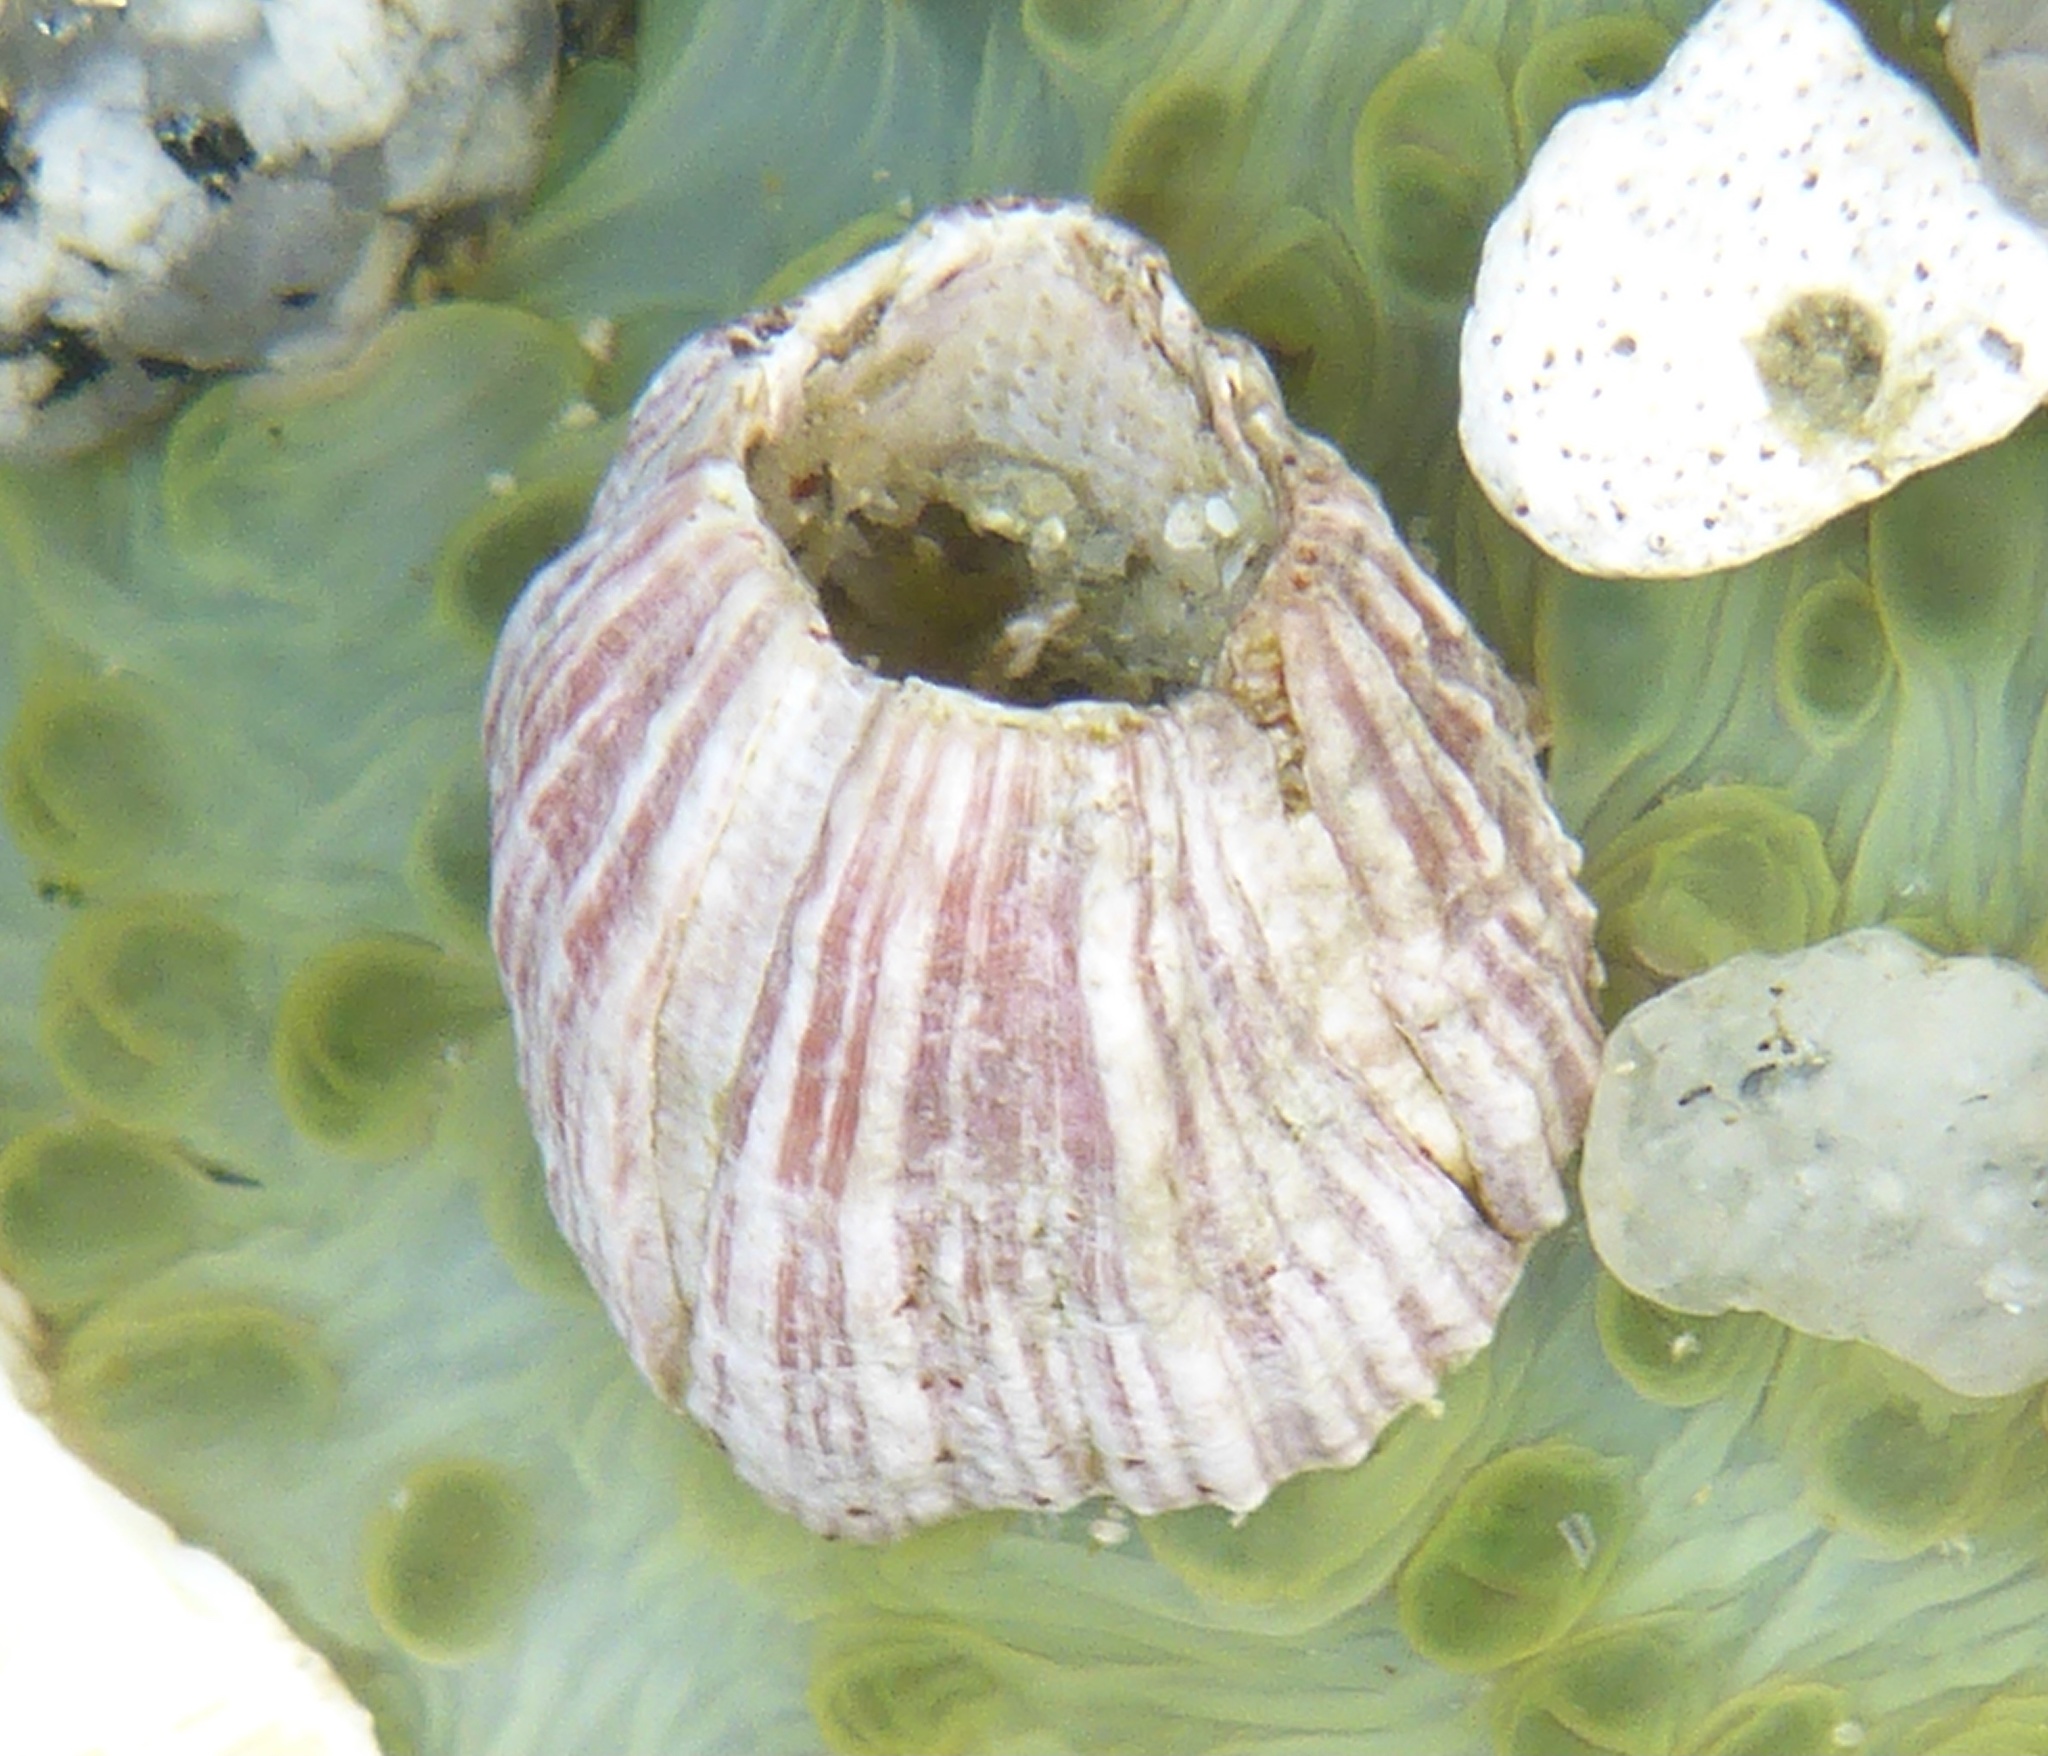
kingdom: Animalia
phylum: Arthropoda
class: Maxillopoda
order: Sessilia
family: Balanidae
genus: Megabalanus
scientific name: Megabalanus californicus
